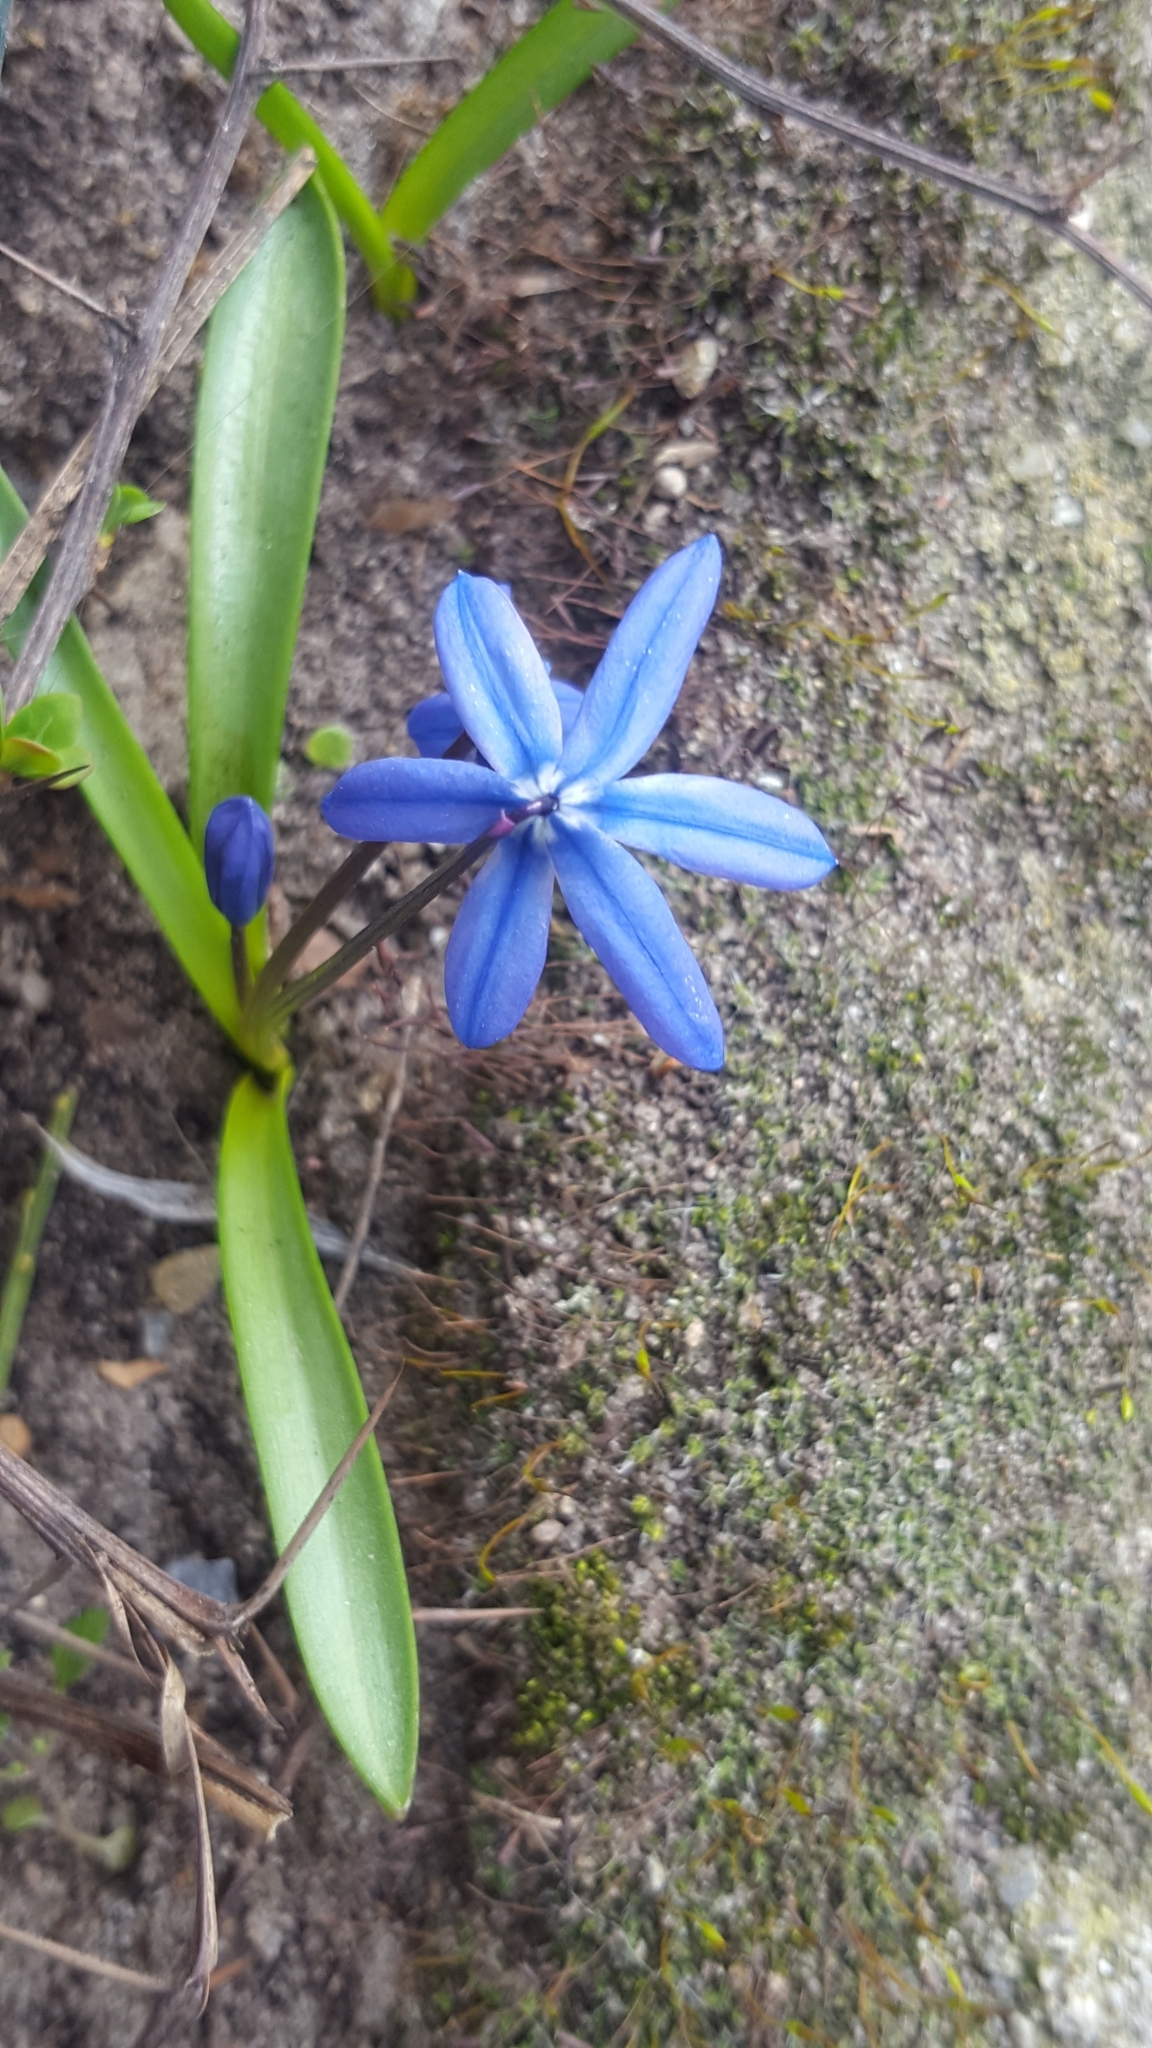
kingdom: Plantae
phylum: Tracheophyta
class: Liliopsida
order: Asparagales
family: Asparagaceae
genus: Scilla
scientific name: Scilla siberica
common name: Siberian squill
